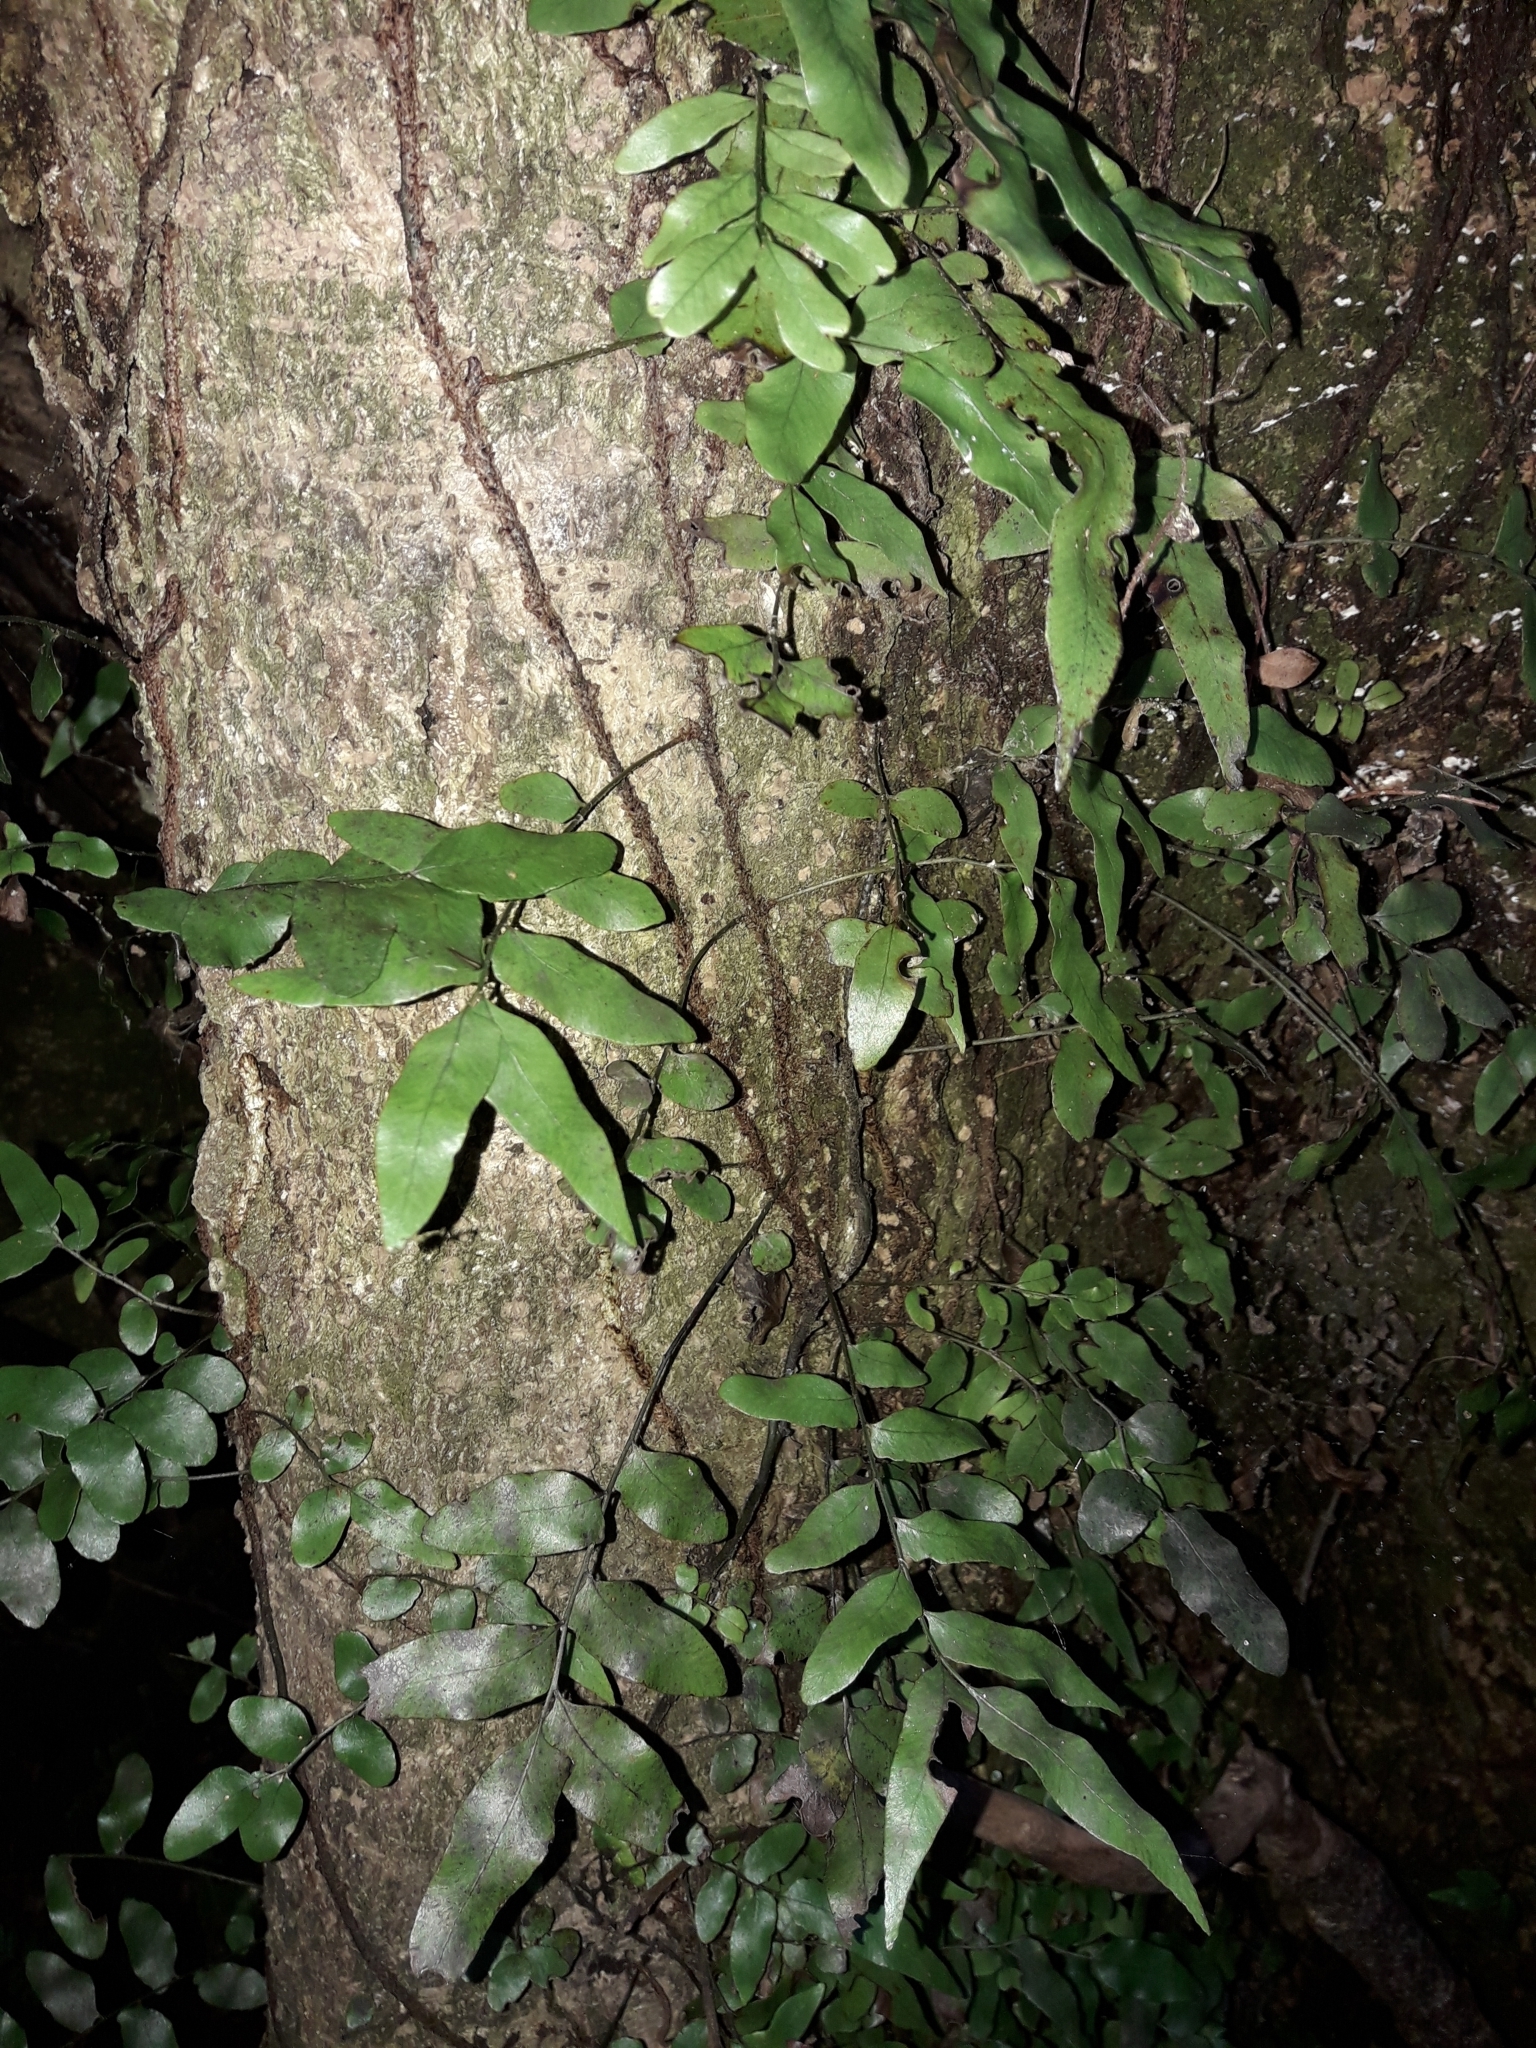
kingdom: Plantae
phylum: Tracheophyta
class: Polypodiopsida
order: Polypodiales
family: Tectariaceae
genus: Arthropteris
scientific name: Arthropteris tenella
